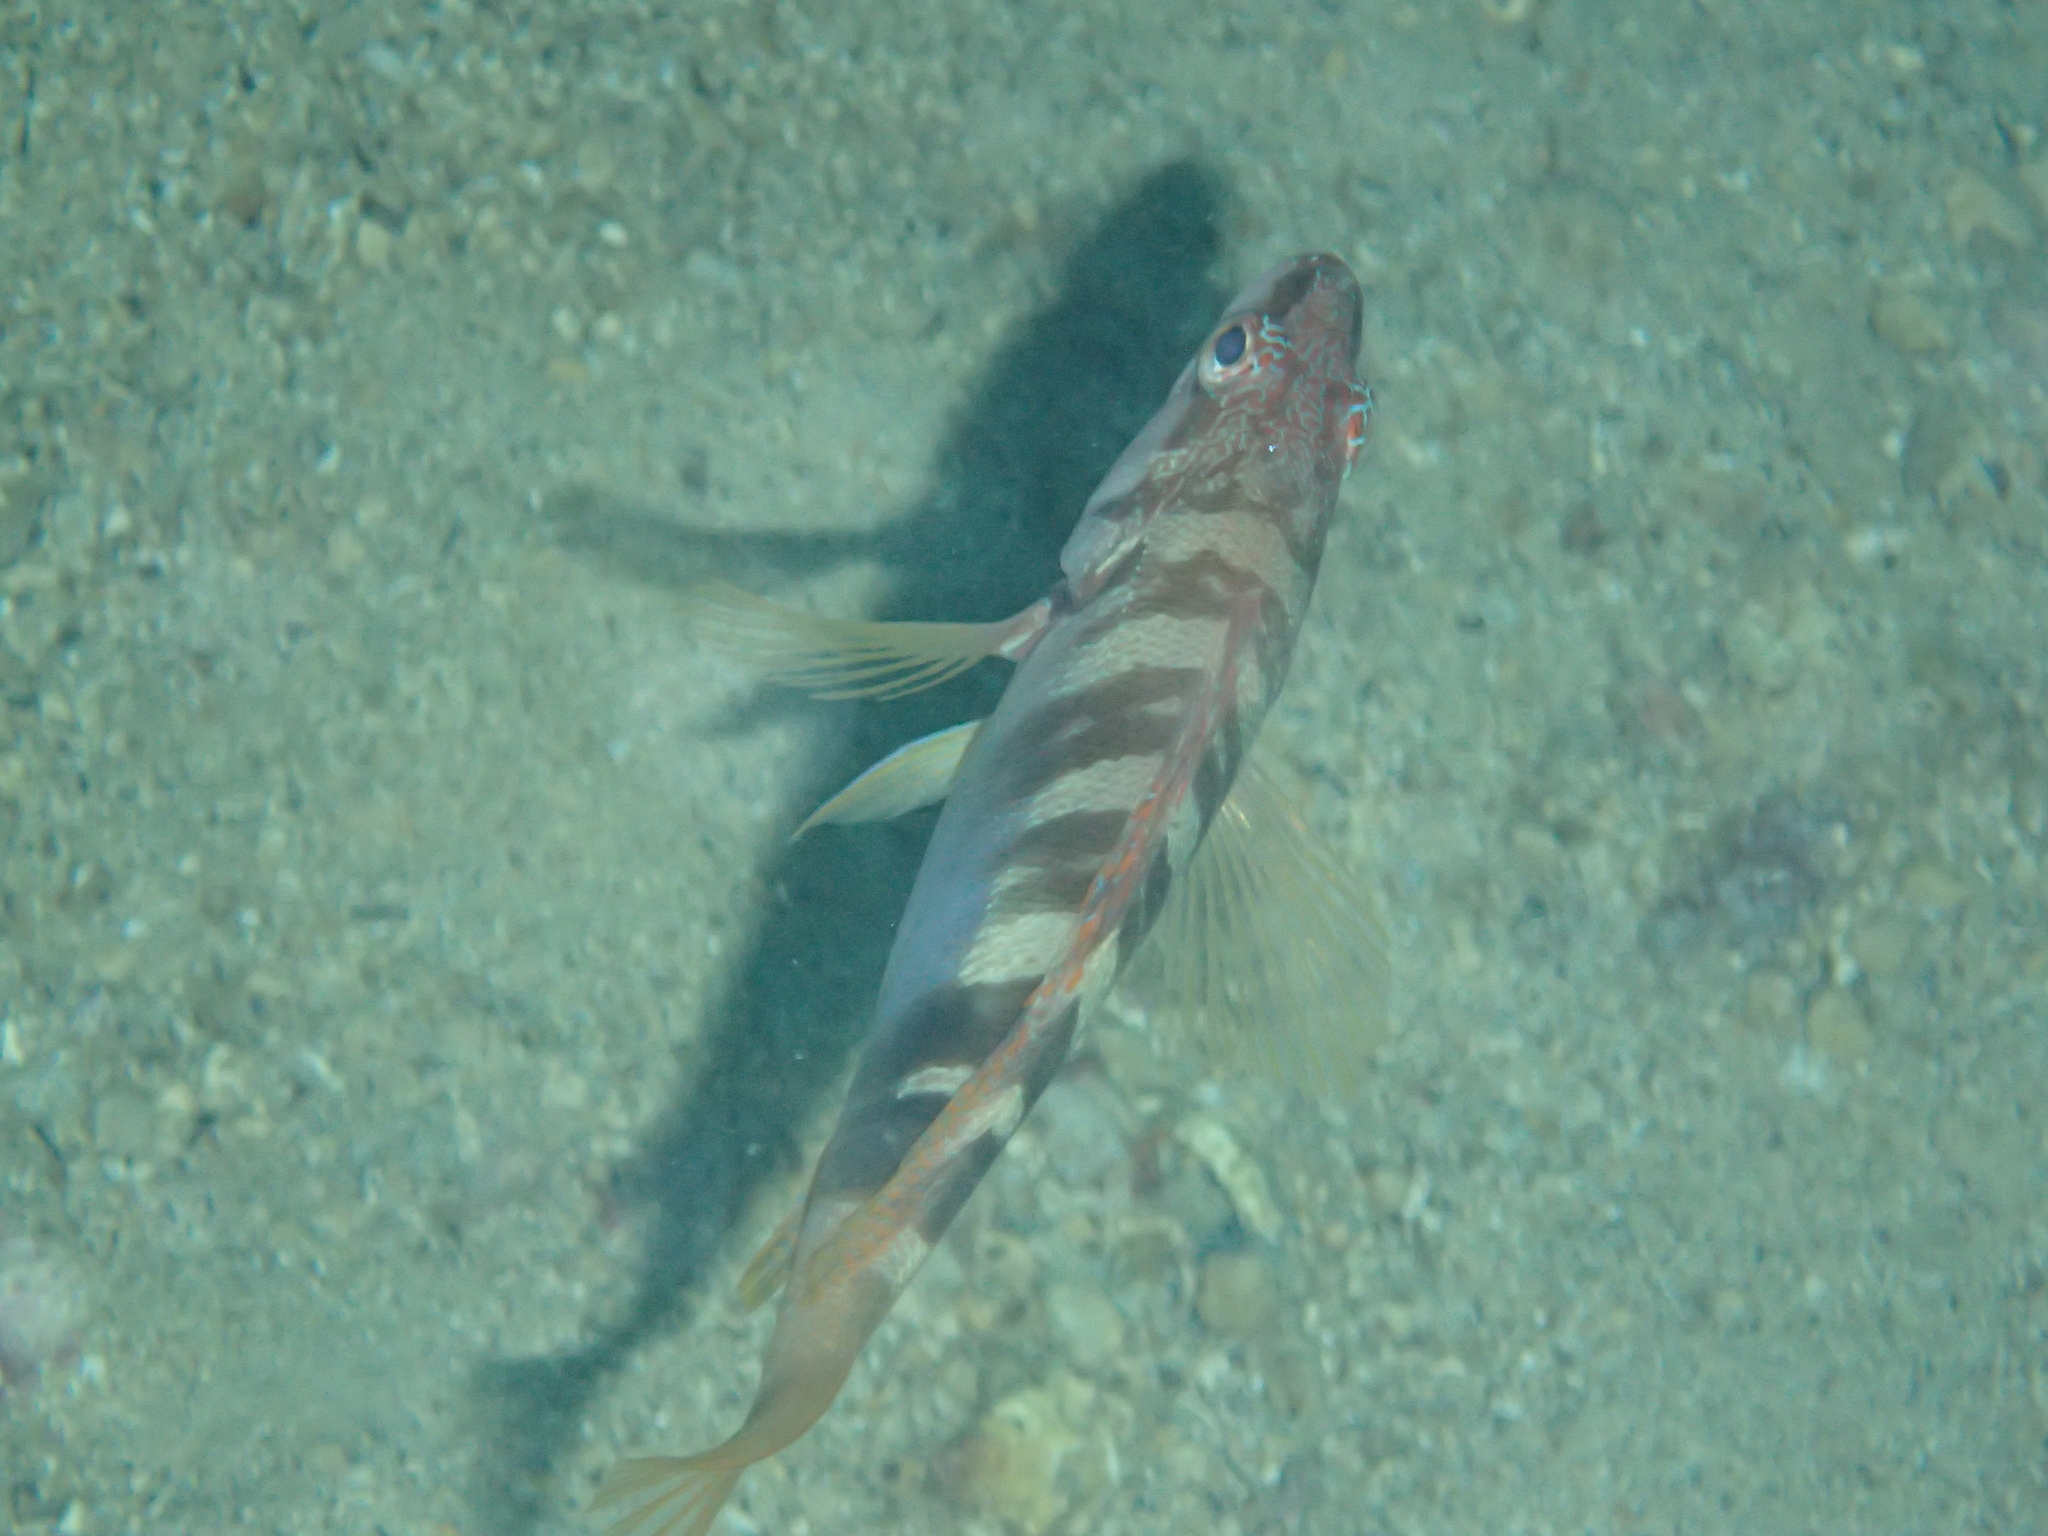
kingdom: Animalia
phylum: Chordata
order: Perciformes
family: Serranidae
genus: Serranus
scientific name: Serranus scriba
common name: Painted comber
